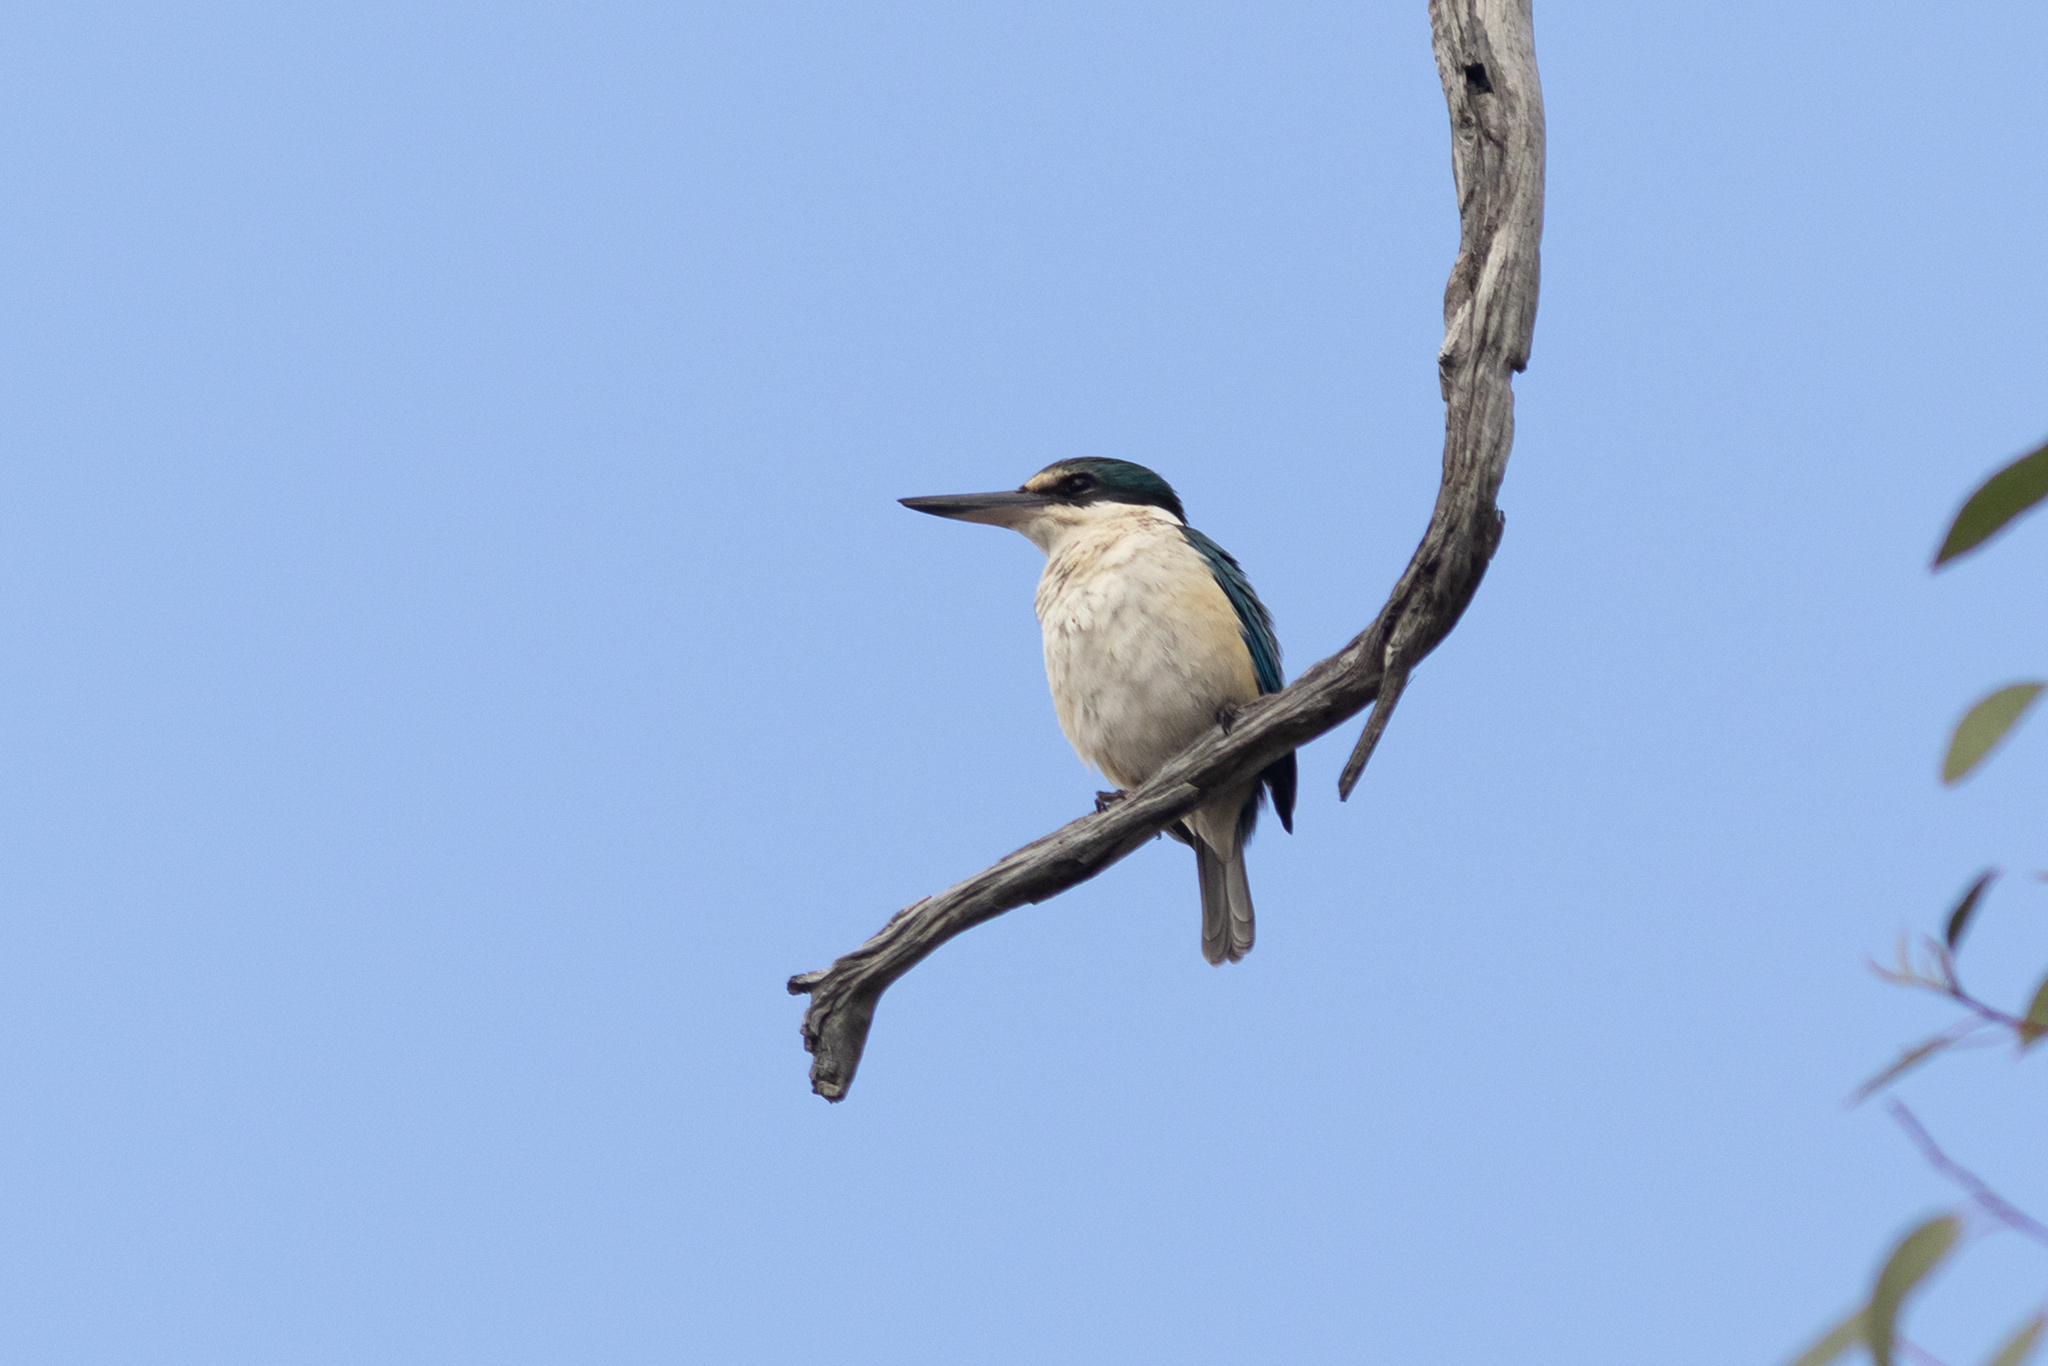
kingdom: Animalia
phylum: Chordata
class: Aves
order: Coraciiformes
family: Alcedinidae
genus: Todiramphus
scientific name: Todiramphus sanctus
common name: Sacred kingfisher
